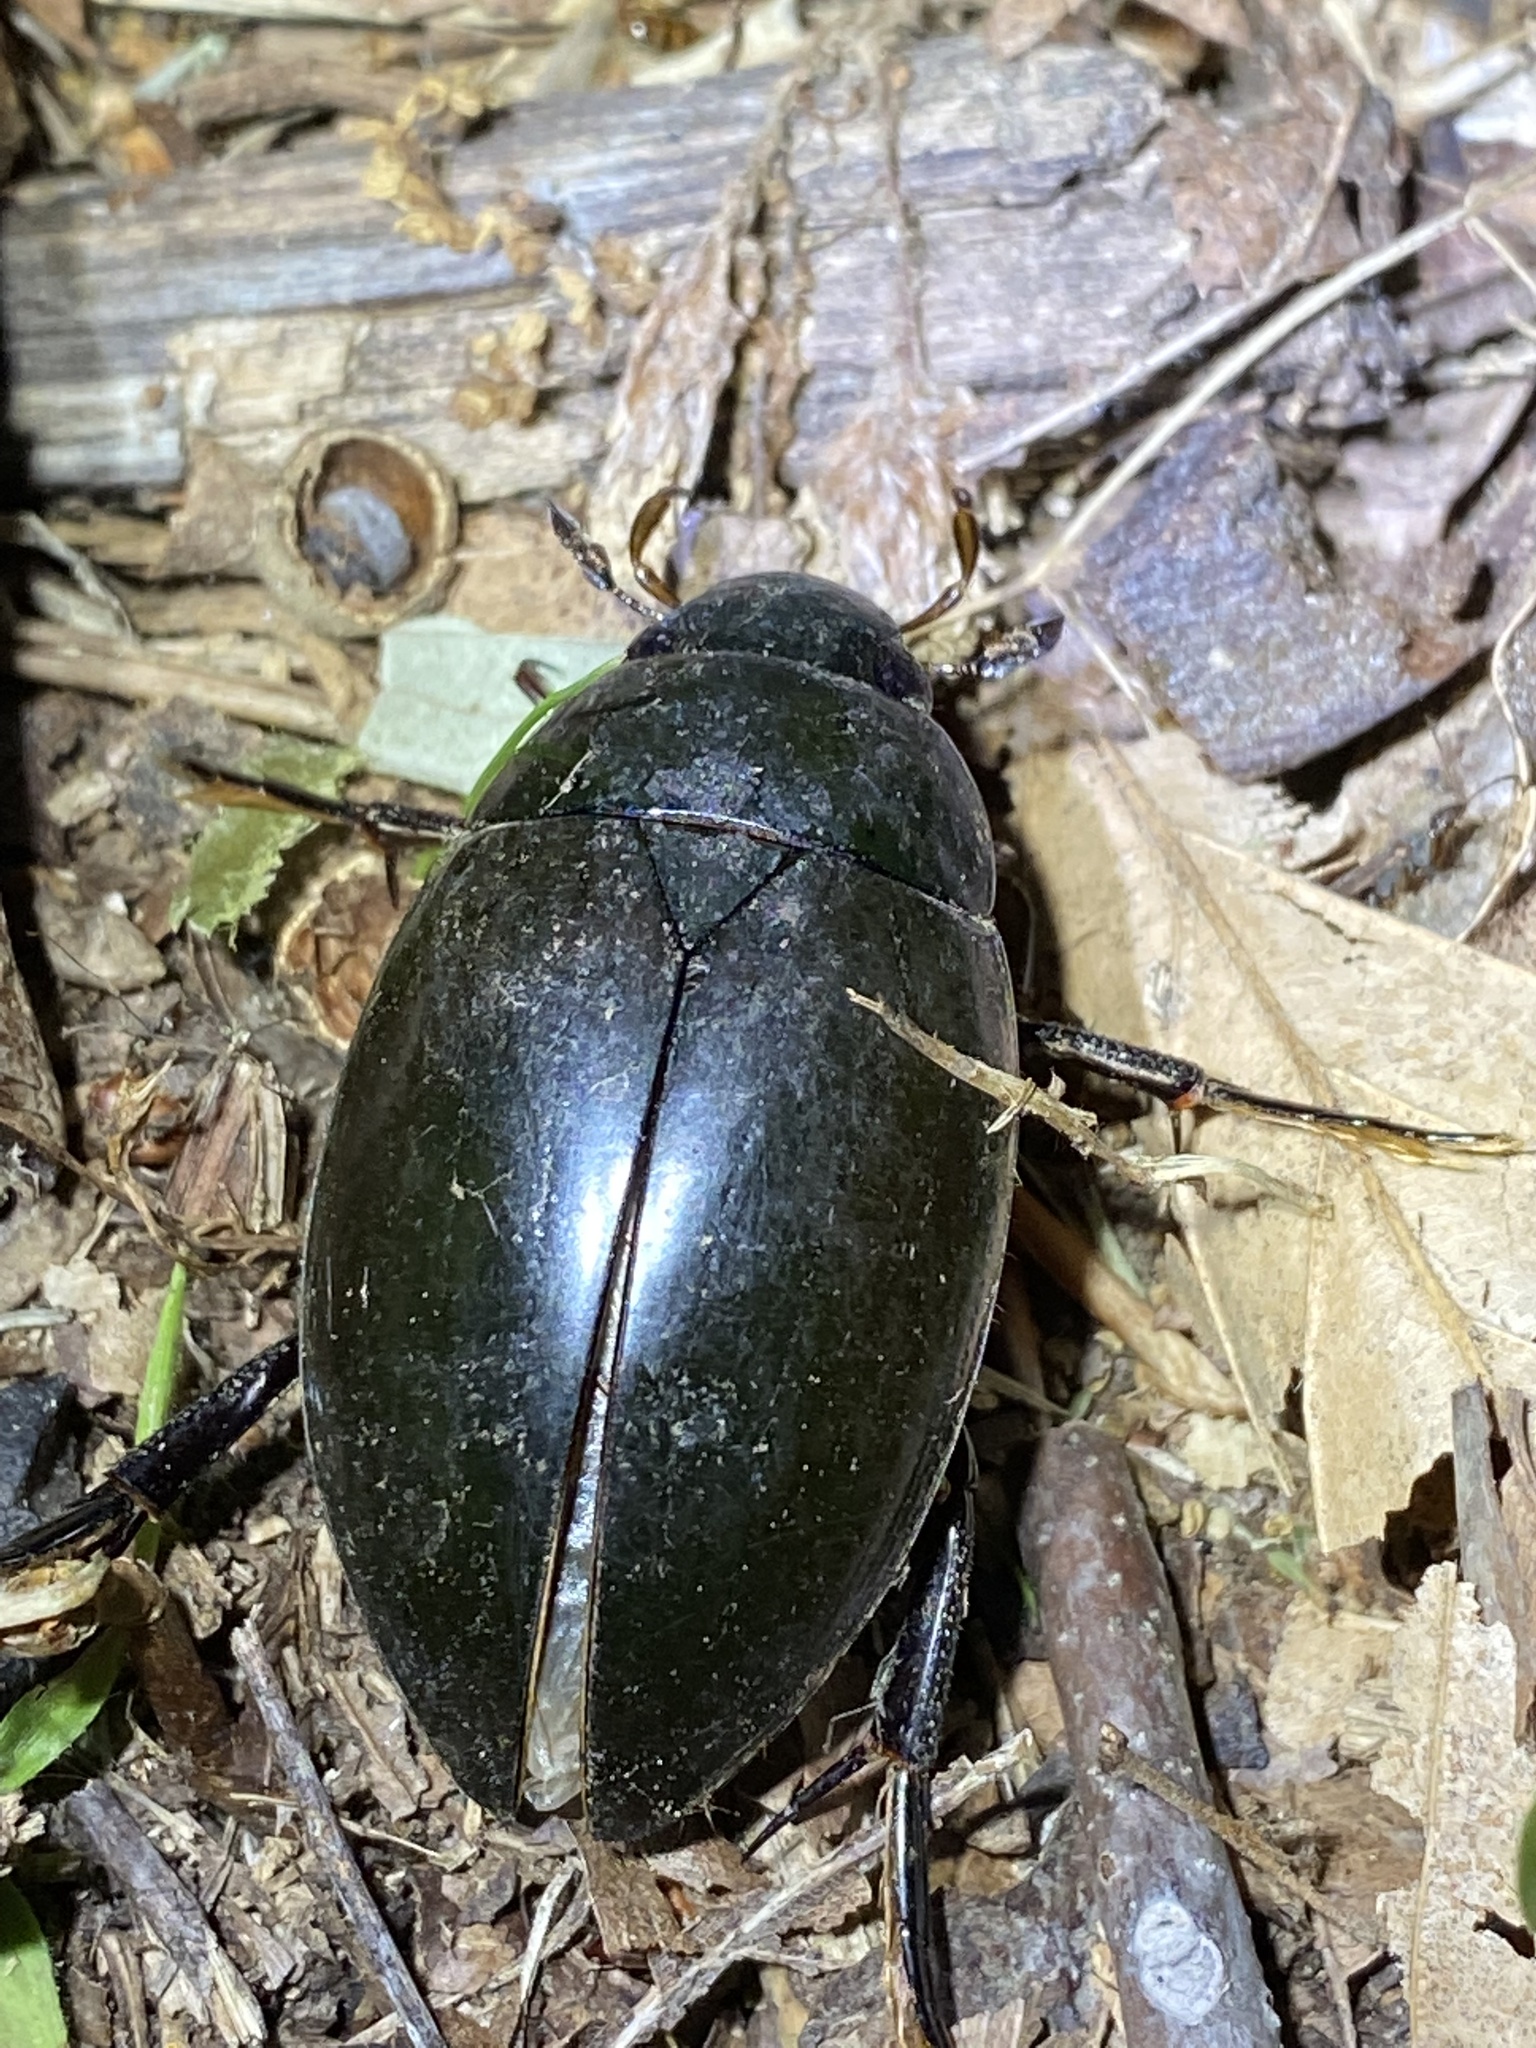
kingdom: Animalia
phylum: Arthropoda
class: Insecta
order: Coleoptera
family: Hydrophilidae
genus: Hydrophilus
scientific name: Hydrophilus ovatus
